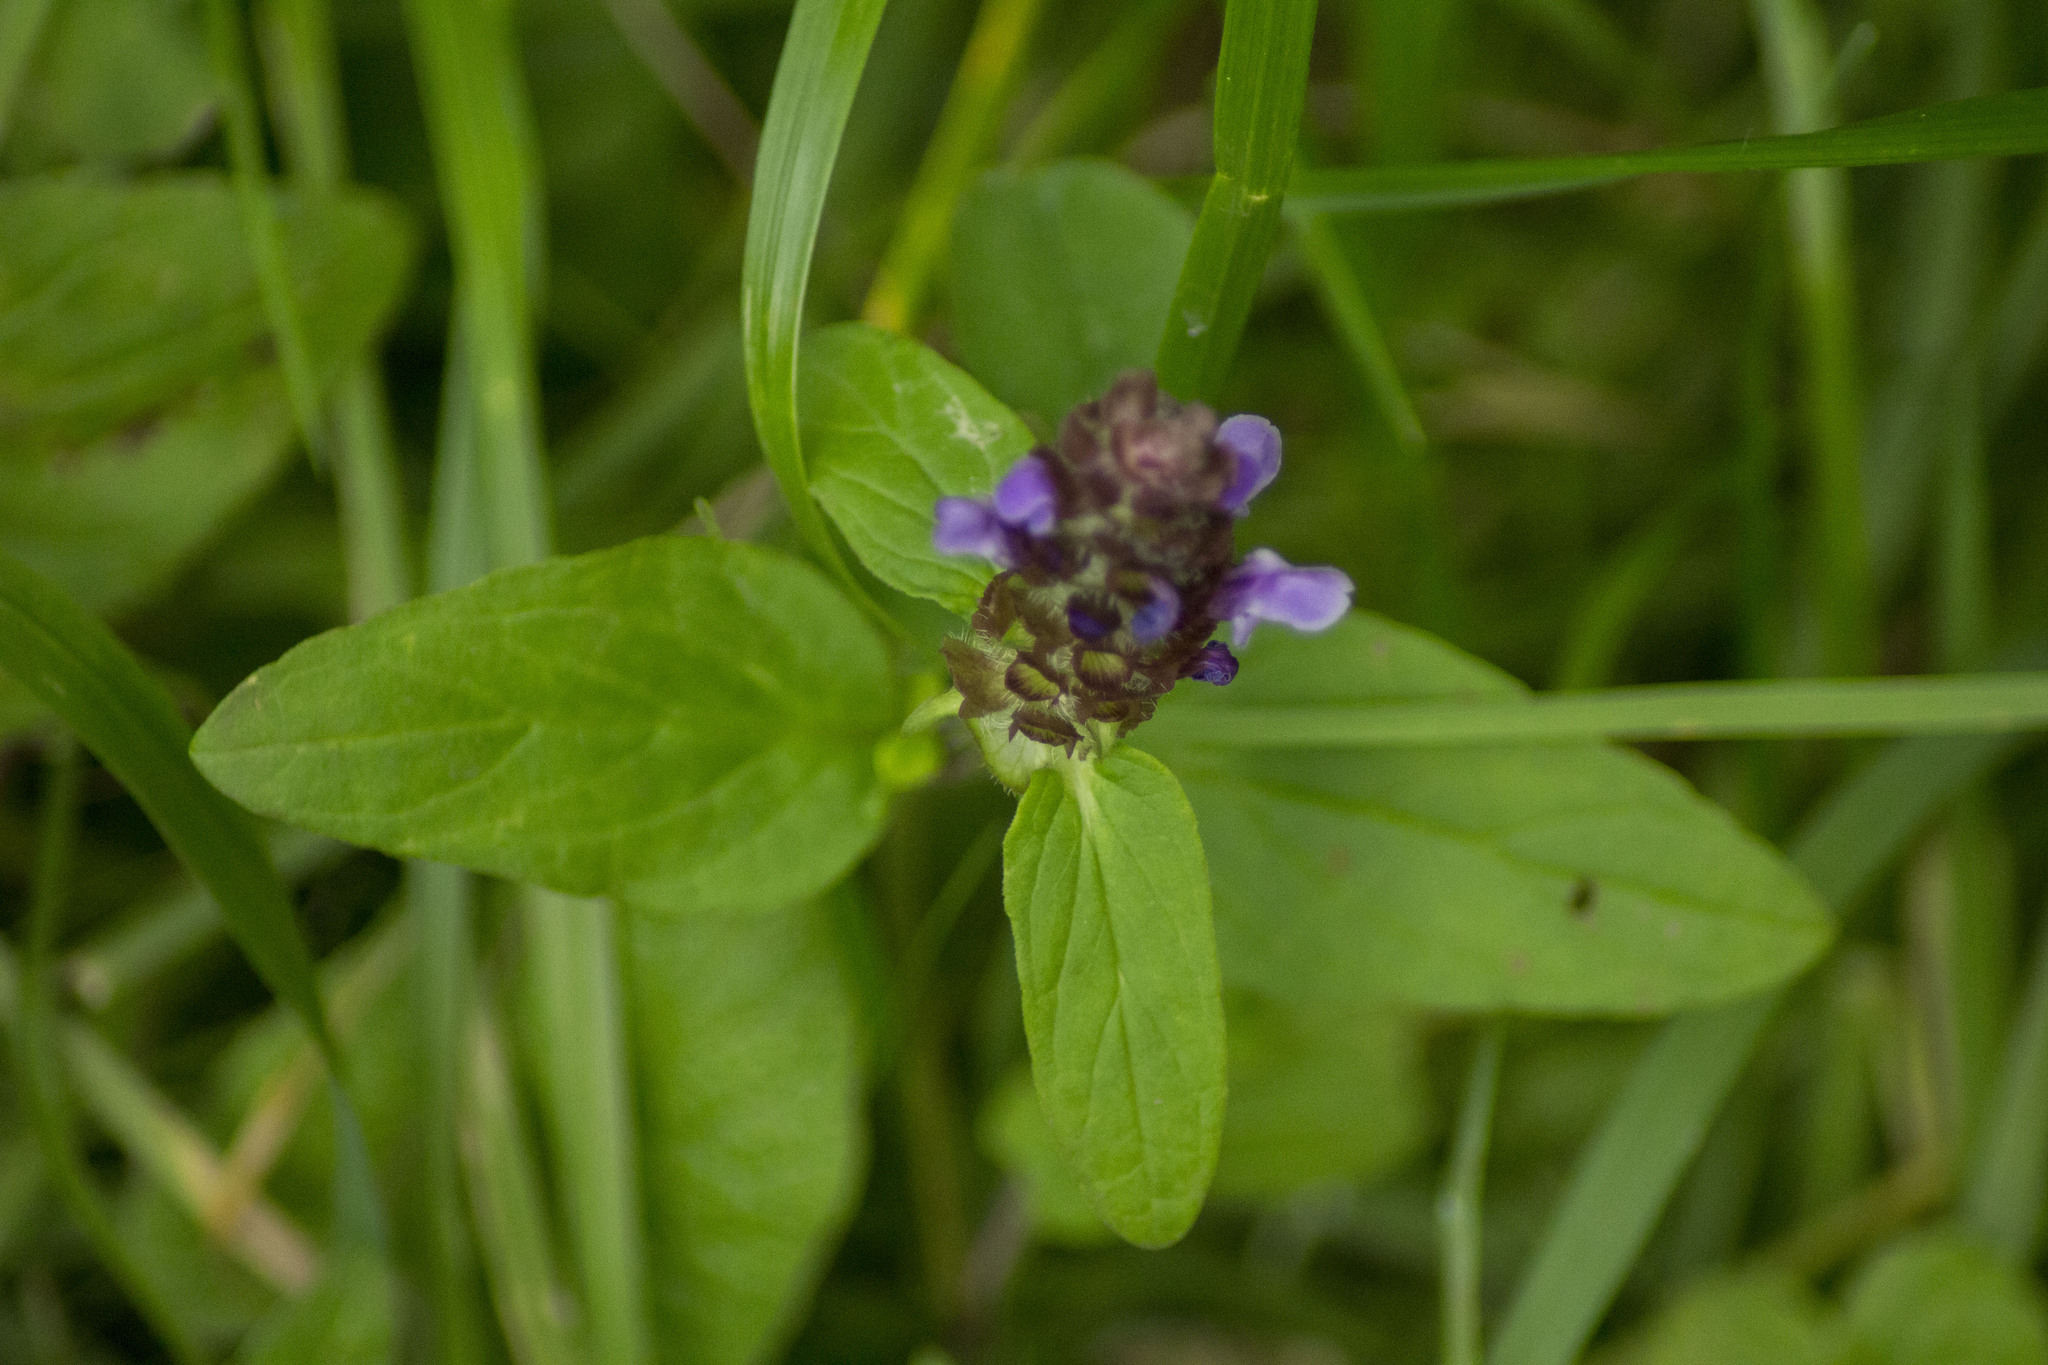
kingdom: Plantae
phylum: Tracheophyta
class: Magnoliopsida
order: Lamiales
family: Lamiaceae
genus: Prunella
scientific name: Prunella vulgaris
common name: Heal-all
